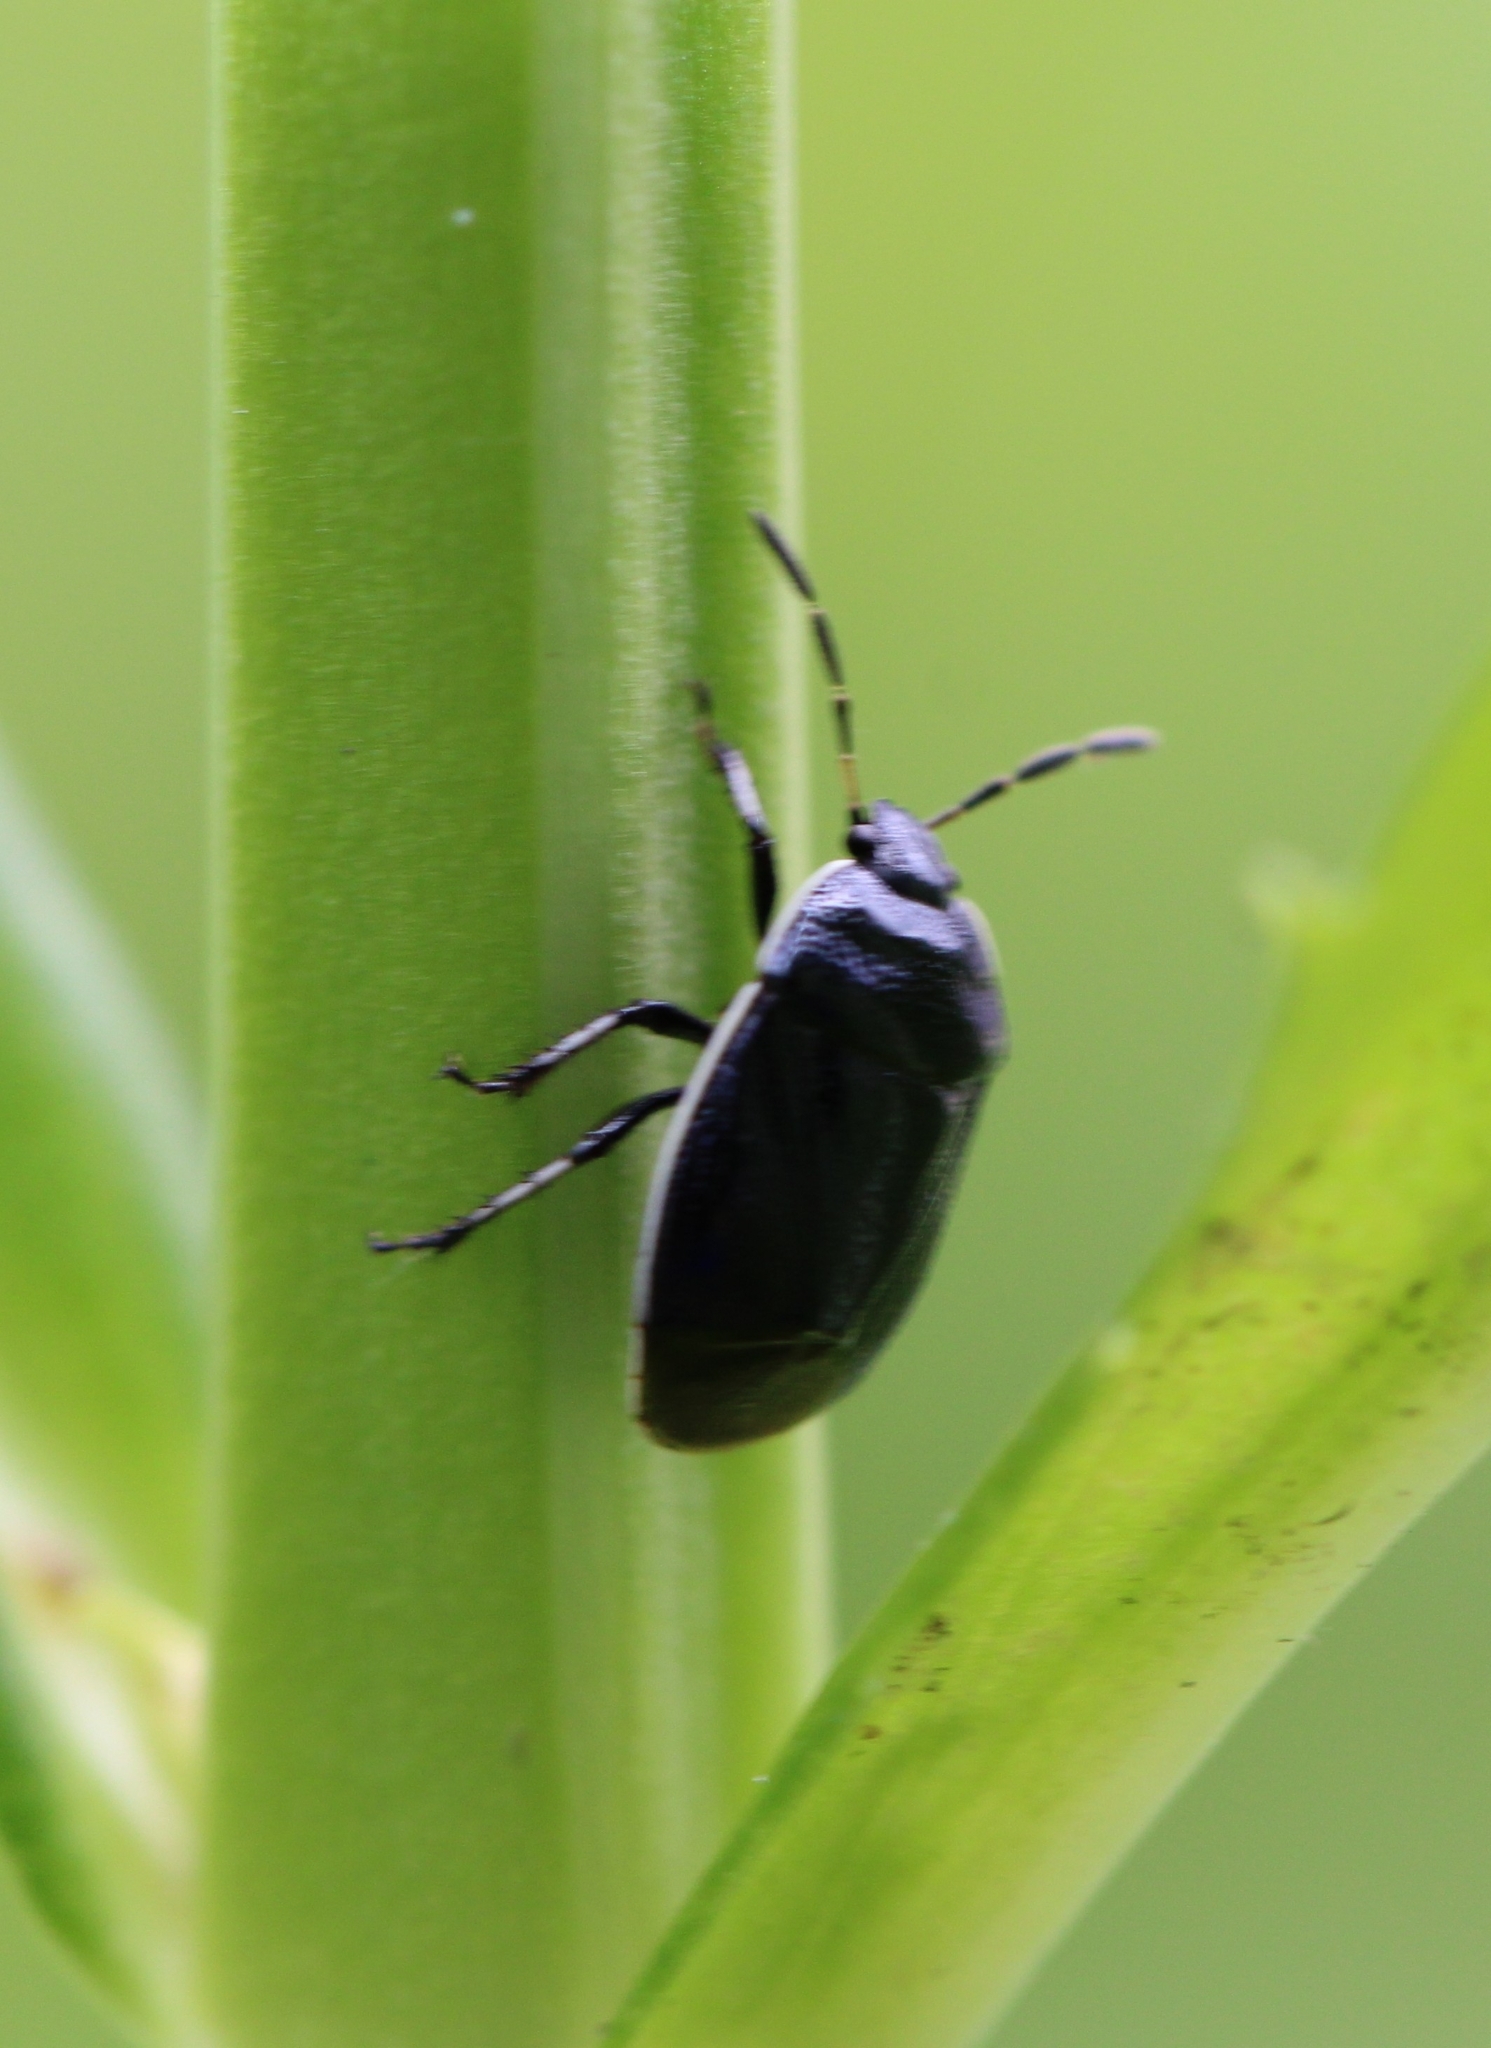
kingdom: Animalia
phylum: Arthropoda
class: Insecta
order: Hemiptera
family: Cydnidae
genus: Sehirus
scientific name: Sehirus cinctus
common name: White-margined burrower bug
